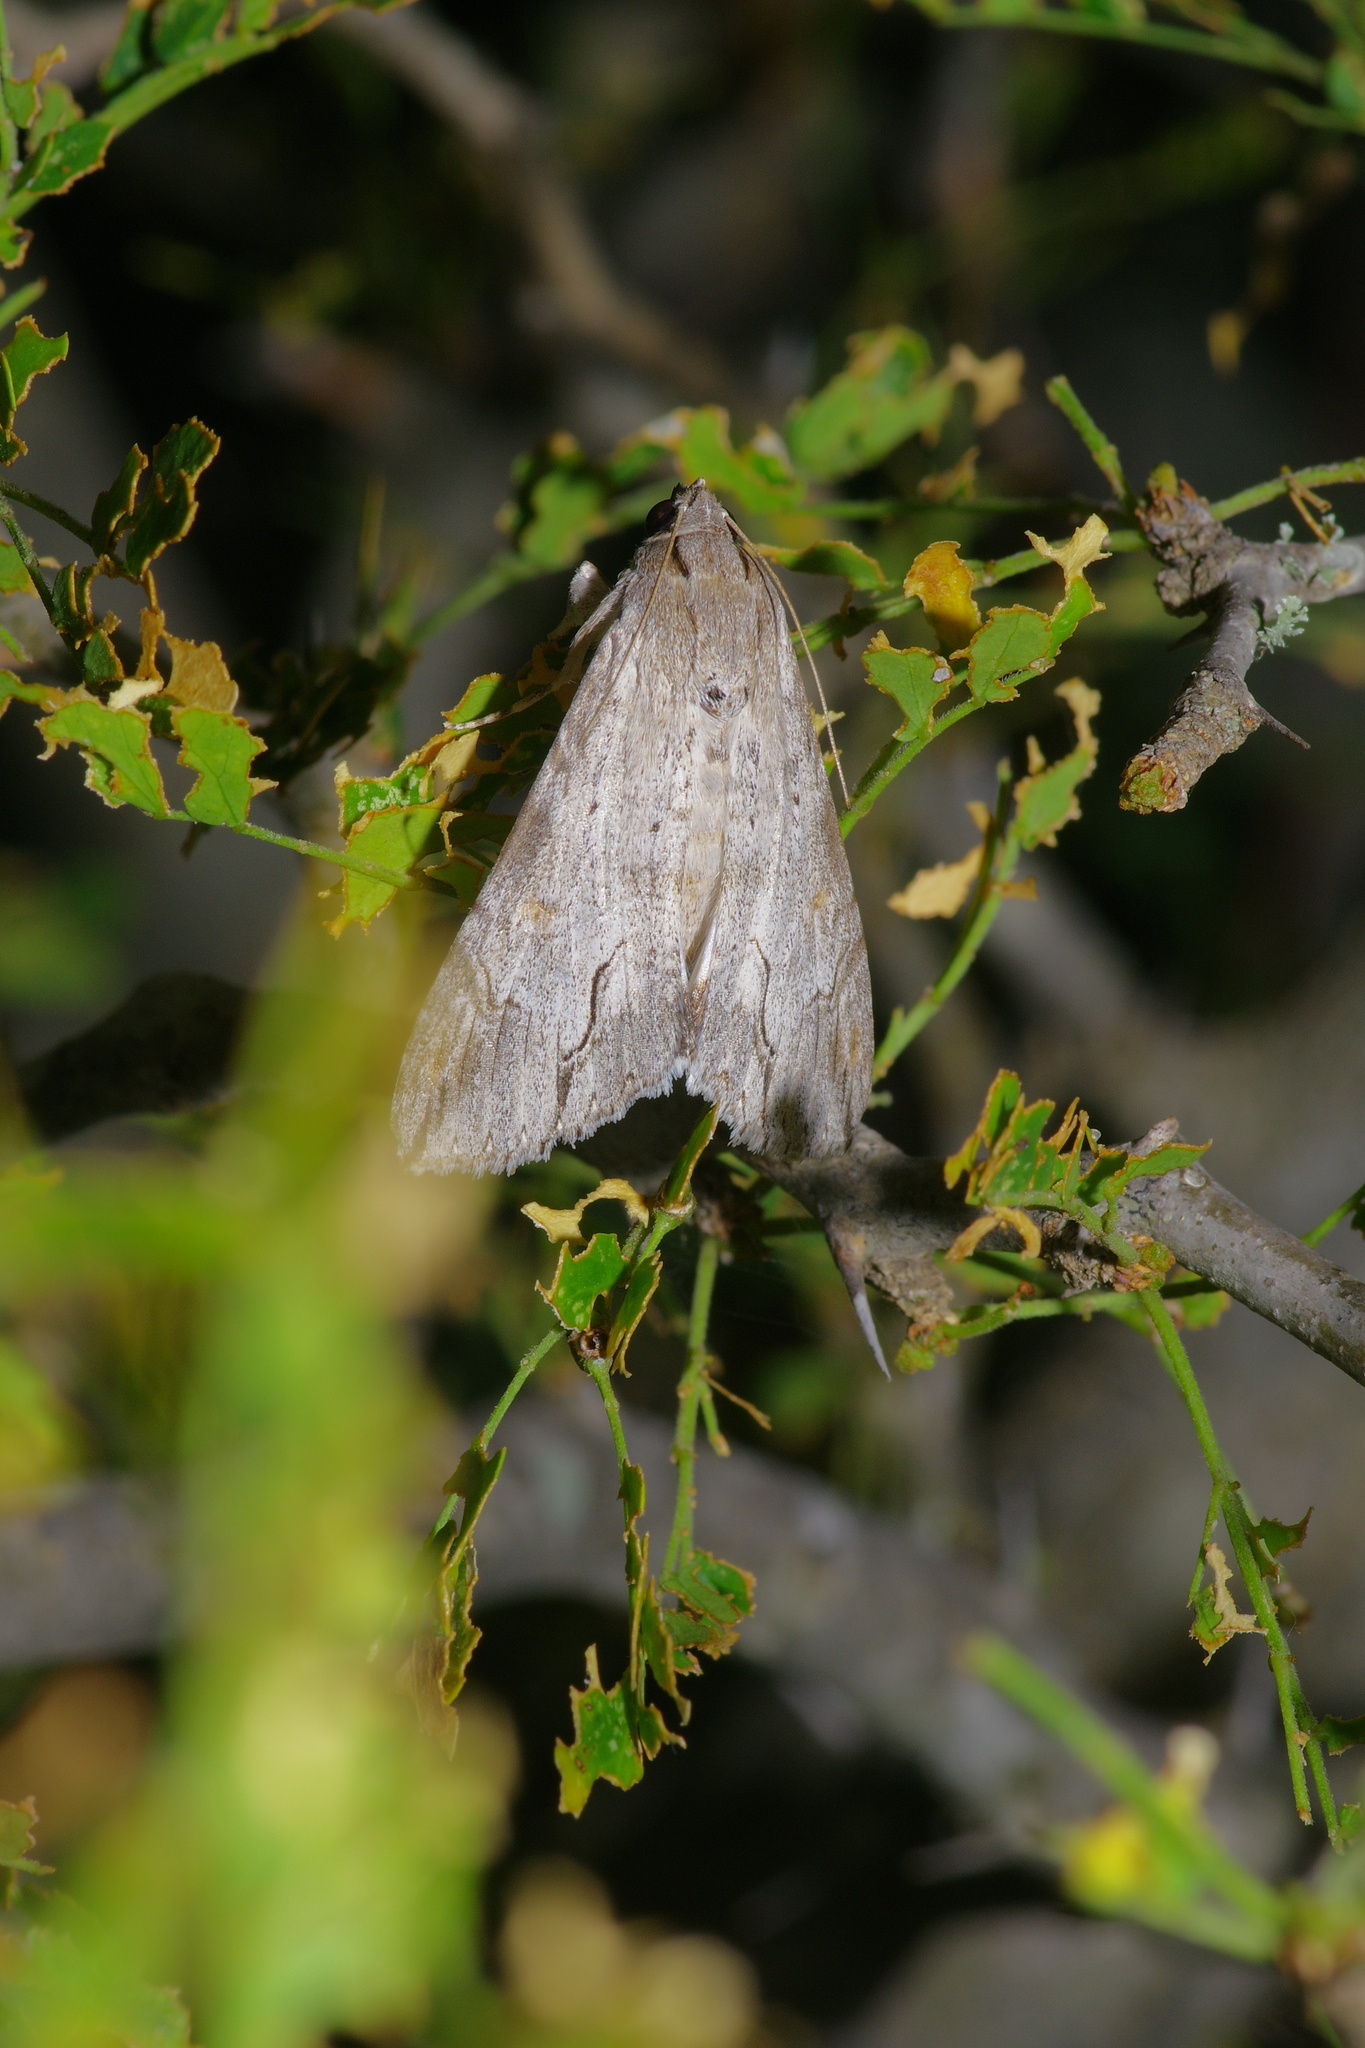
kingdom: Animalia
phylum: Arthropoda
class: Insecta
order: Lepidoptera
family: Erebidae
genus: Melipotis
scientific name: Melipotis acontioides
